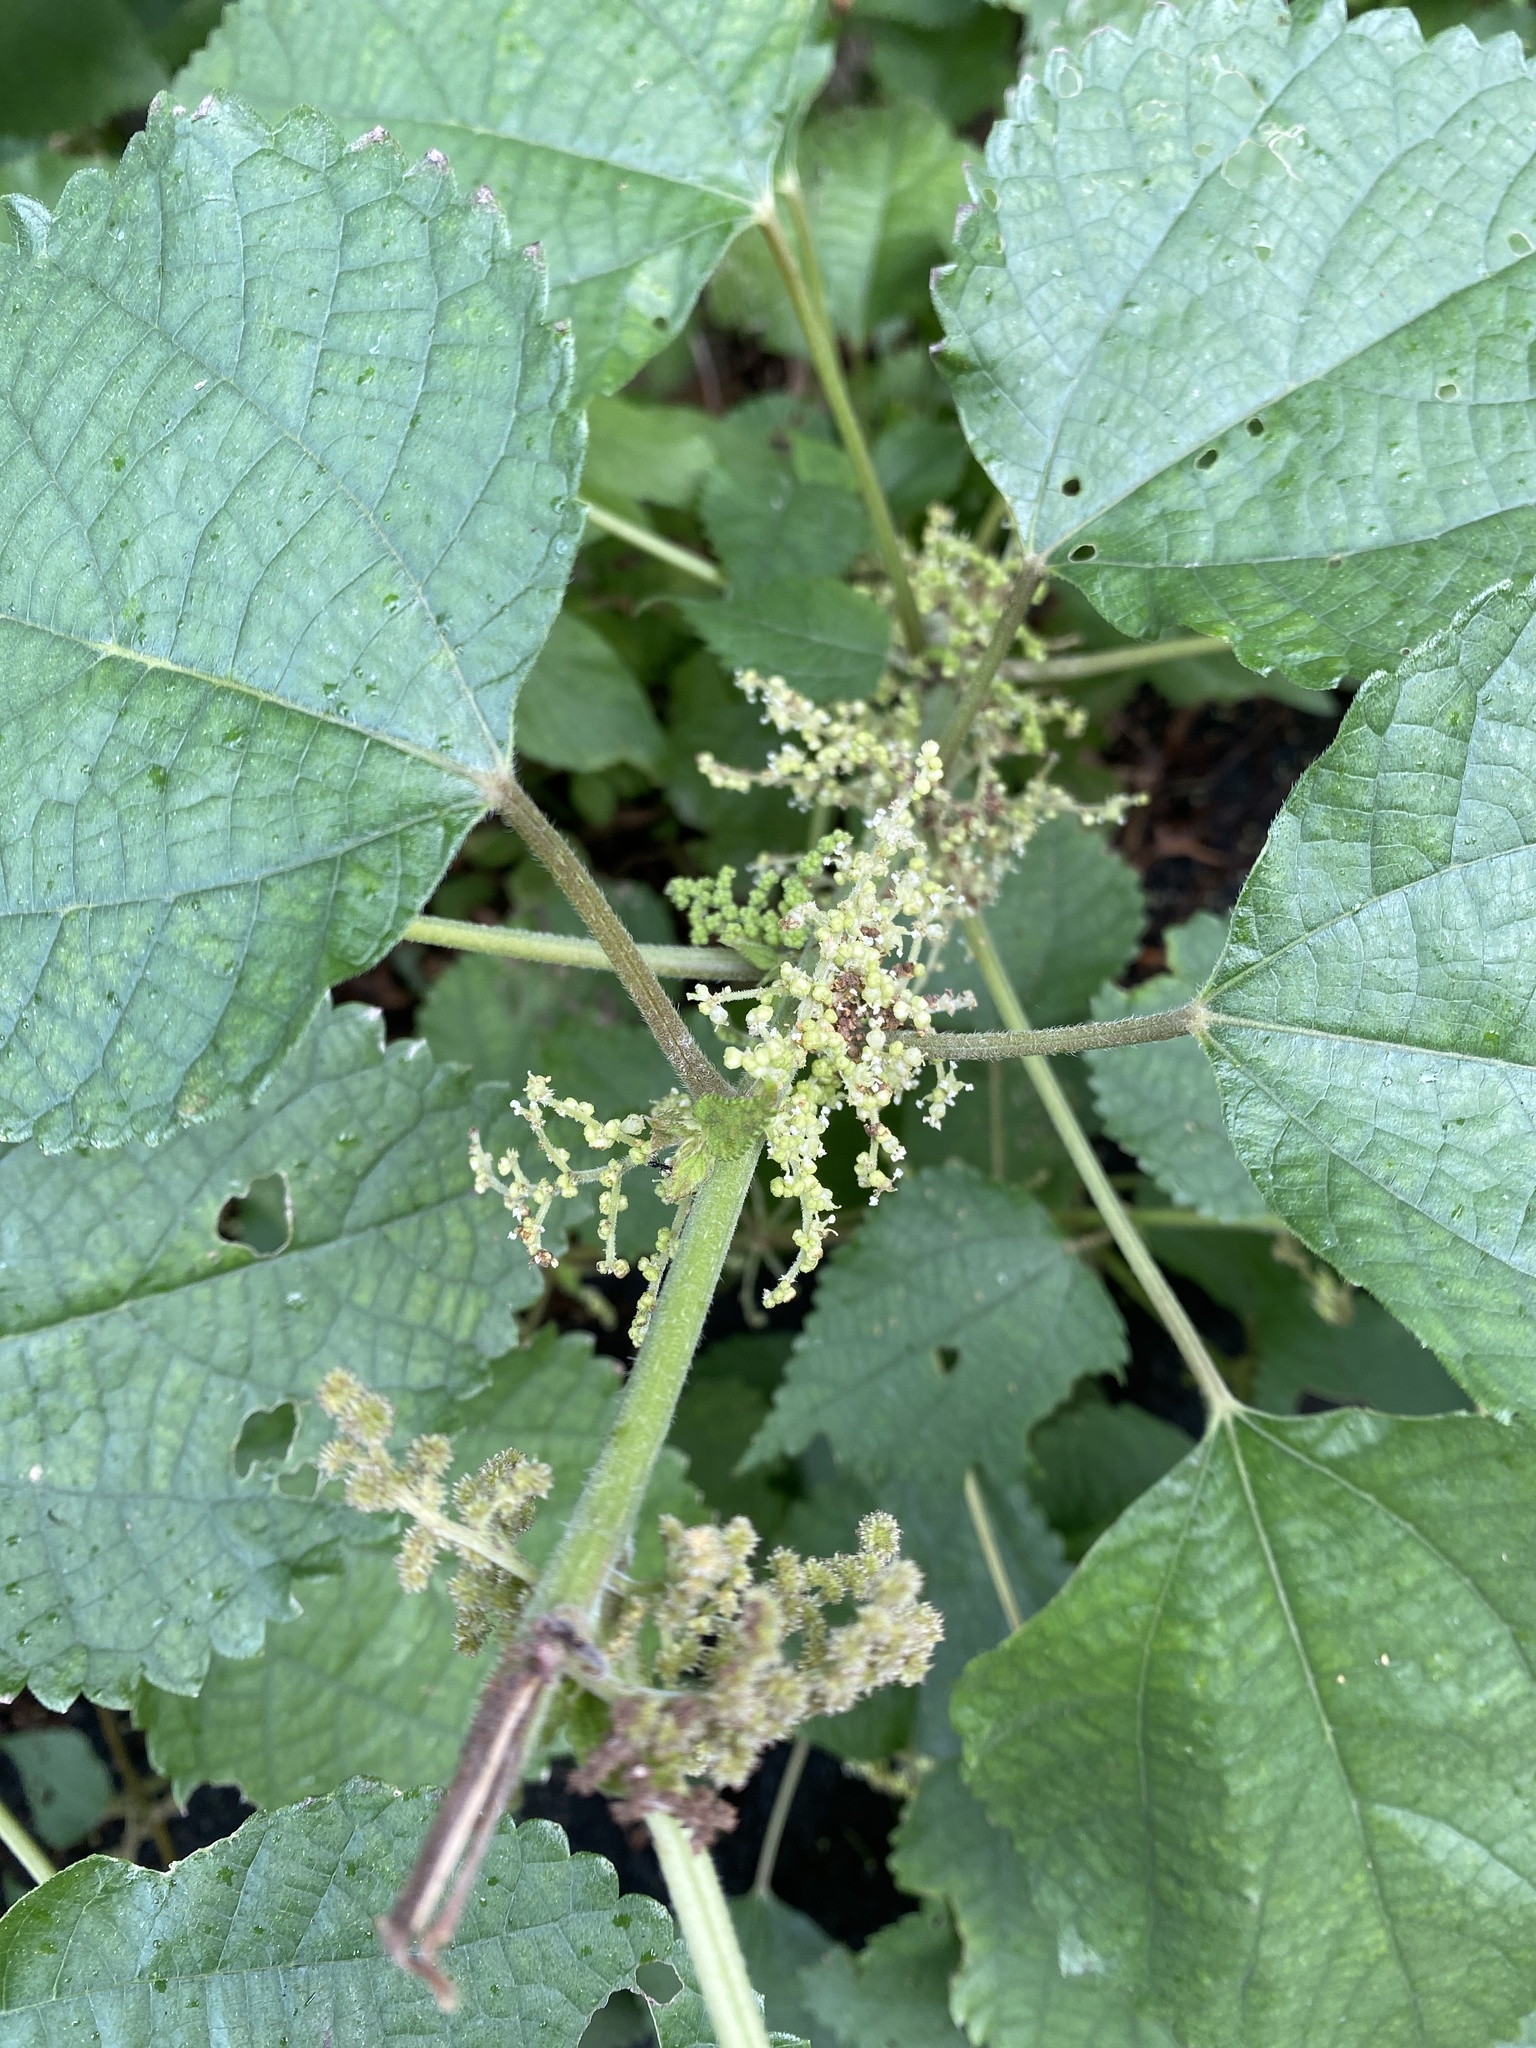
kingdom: Plantae
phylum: Tracheophyta
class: Magnoliopsida
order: Rosales
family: Urticaceae
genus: Boehmeria
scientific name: Boehmeria nivea
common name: Ramie chinese grass
